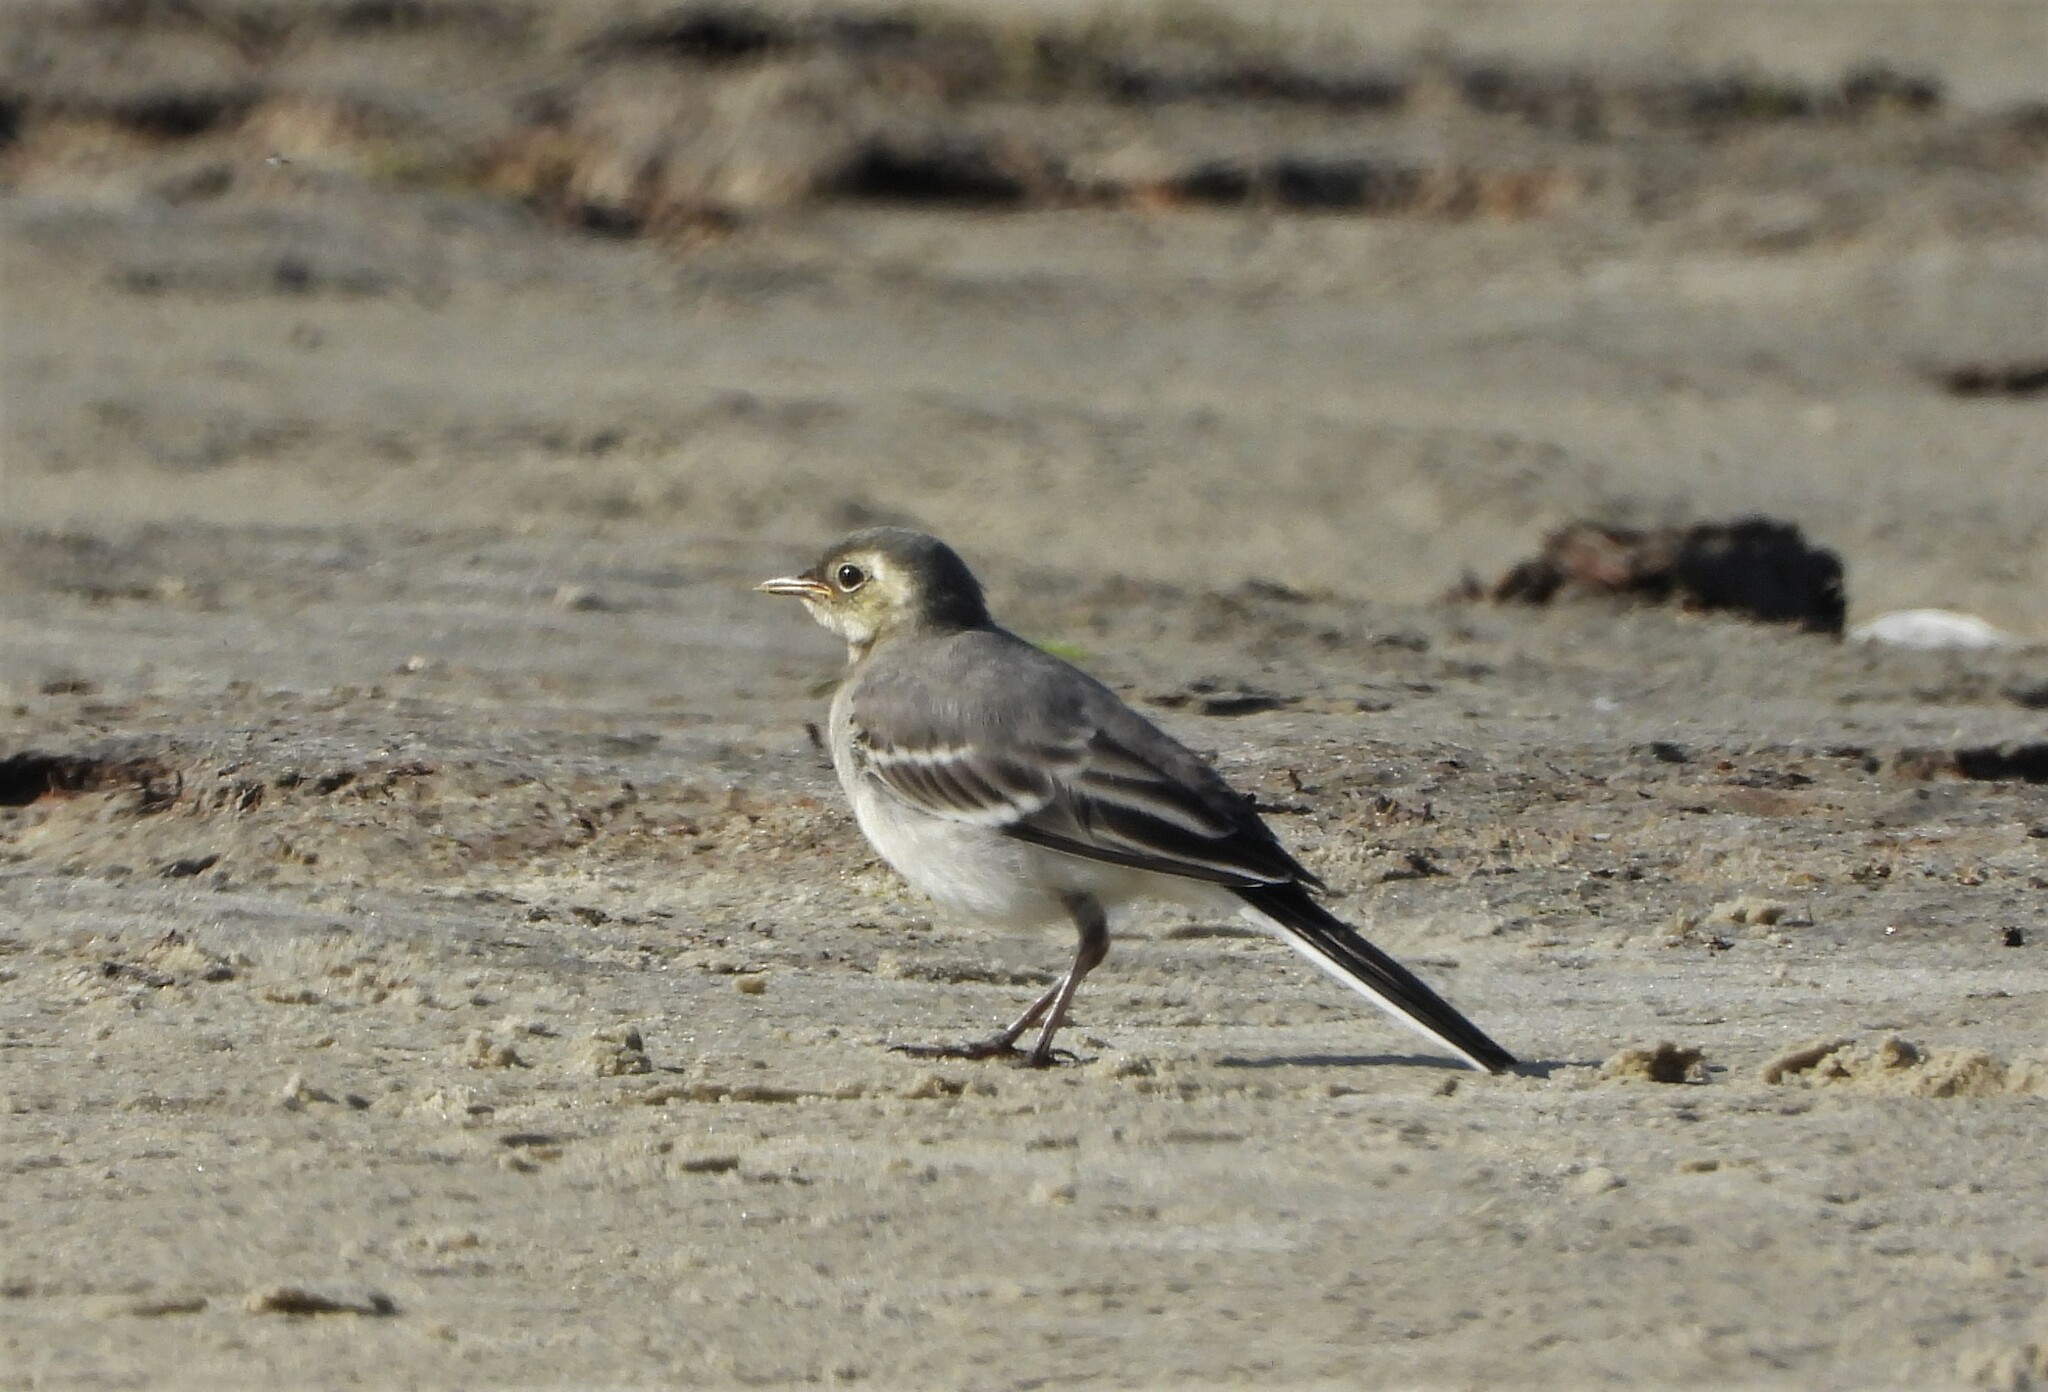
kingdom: Animalia
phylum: Chordata
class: Aves
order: Passeriformes
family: Motacillidae
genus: Motacilla
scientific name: Motacilla alba
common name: White wagtail
